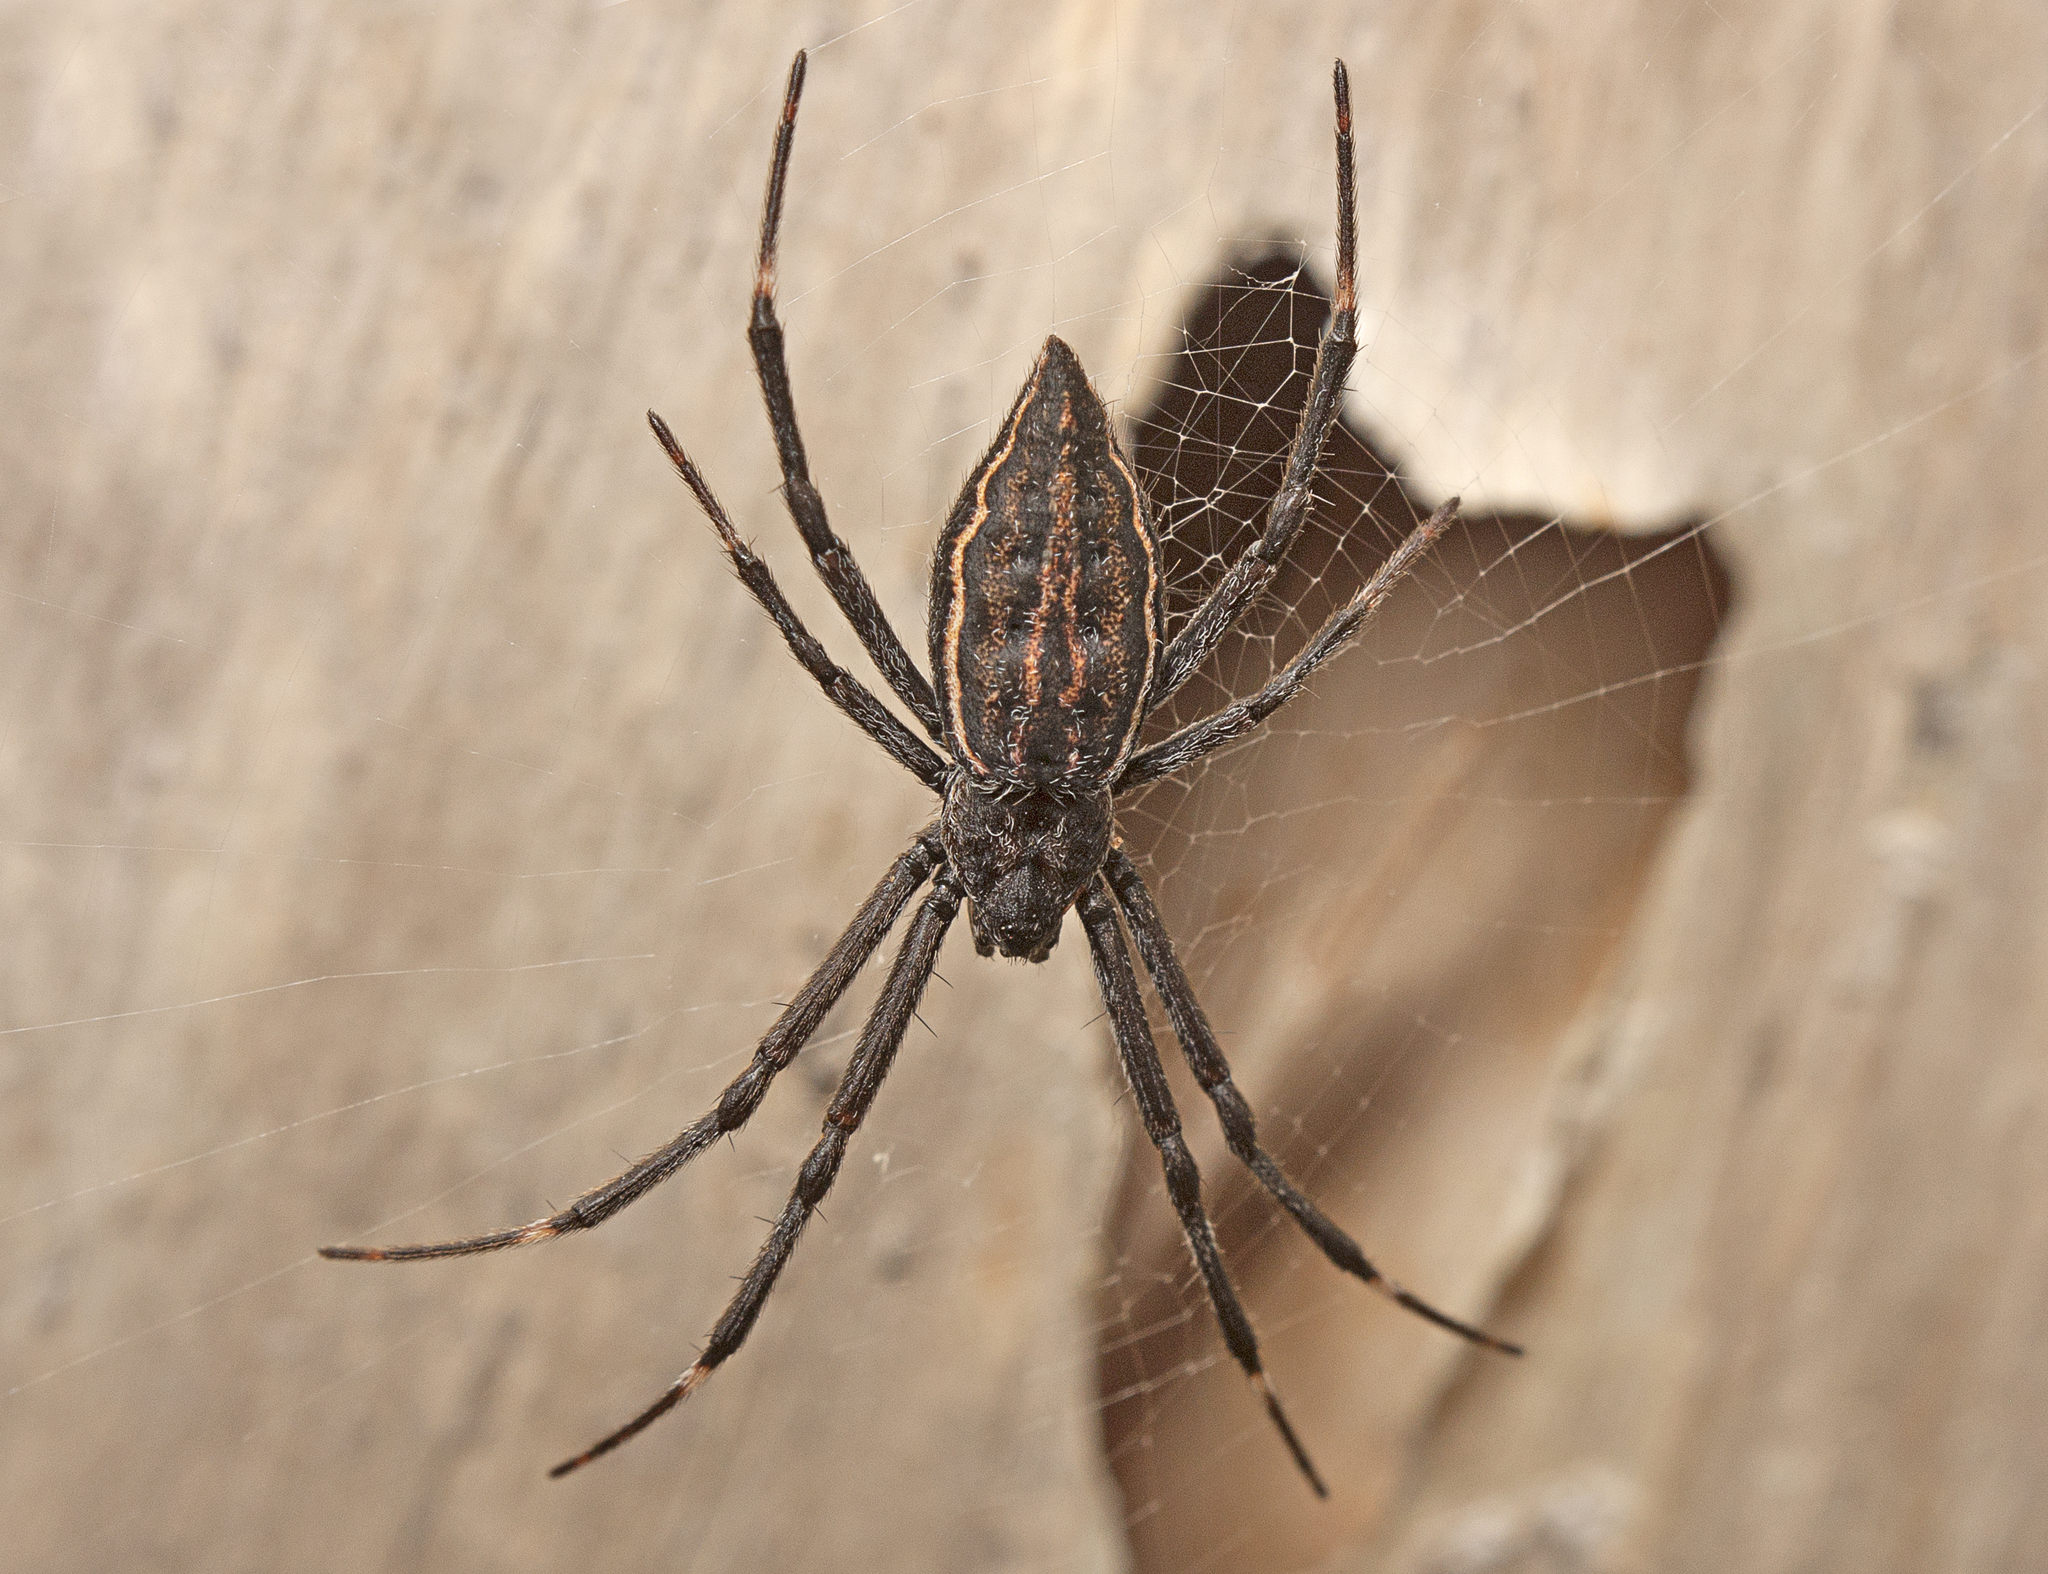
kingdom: Animalia
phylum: Arthropoda
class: Arachnida
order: Araneae
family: Araneidae
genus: Argiope
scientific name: Argiope ocyaloides
